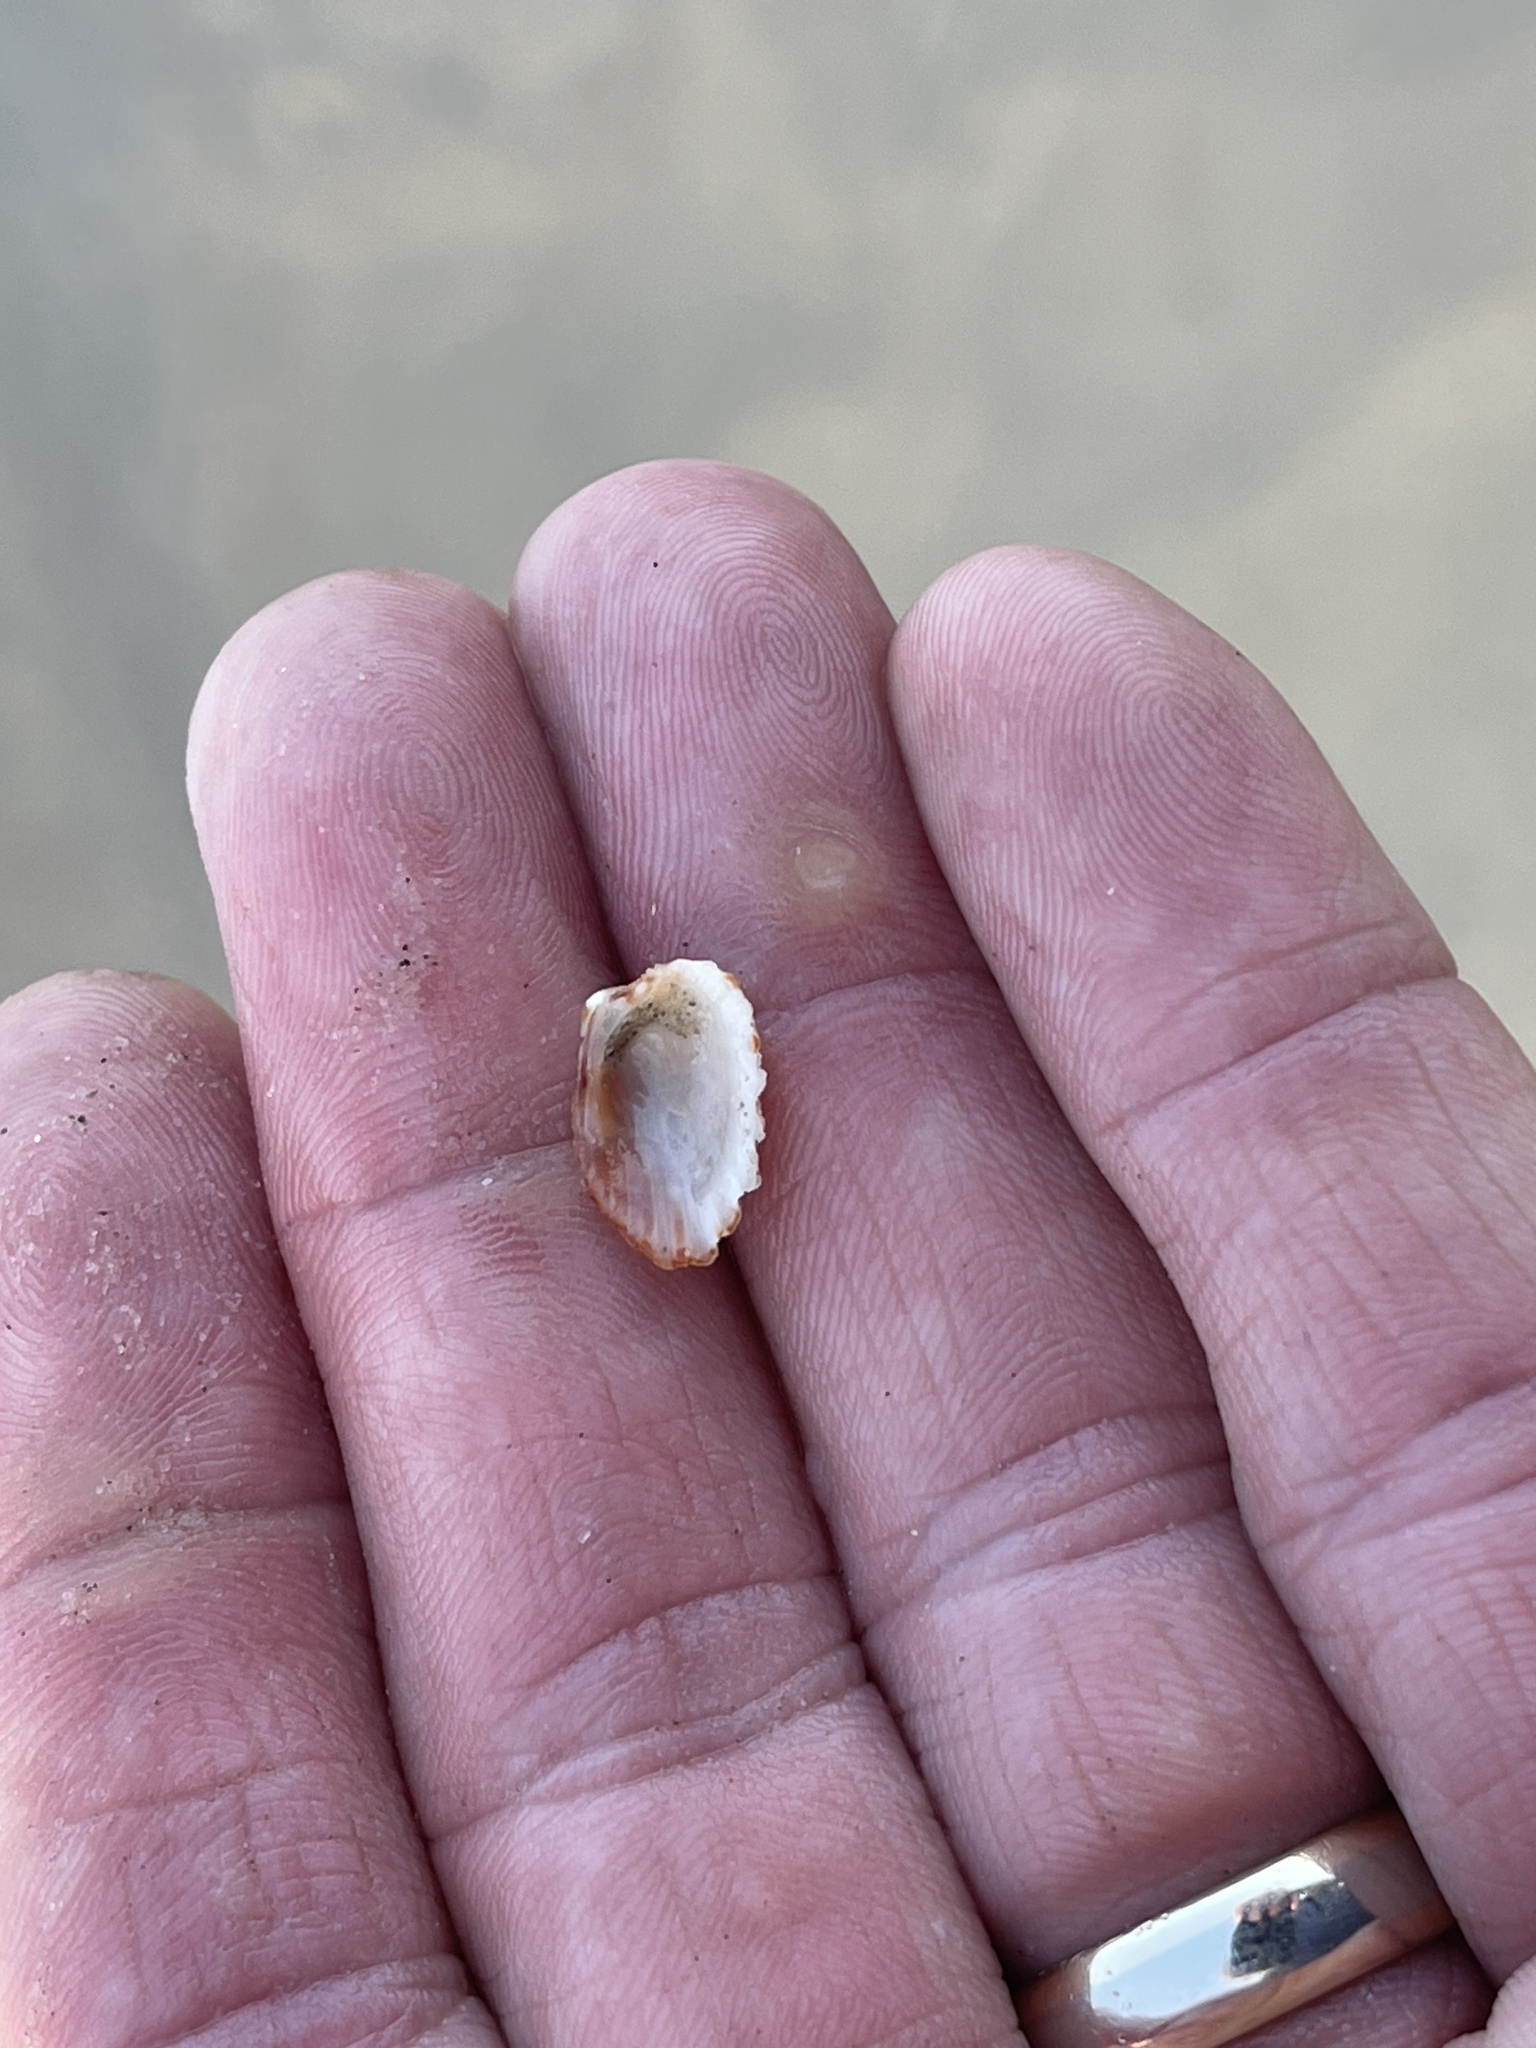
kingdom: Animalia
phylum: Mollusca
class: Bivalvia
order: Carditida
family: Carditidae
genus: Cardites
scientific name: Cardites floridanus
